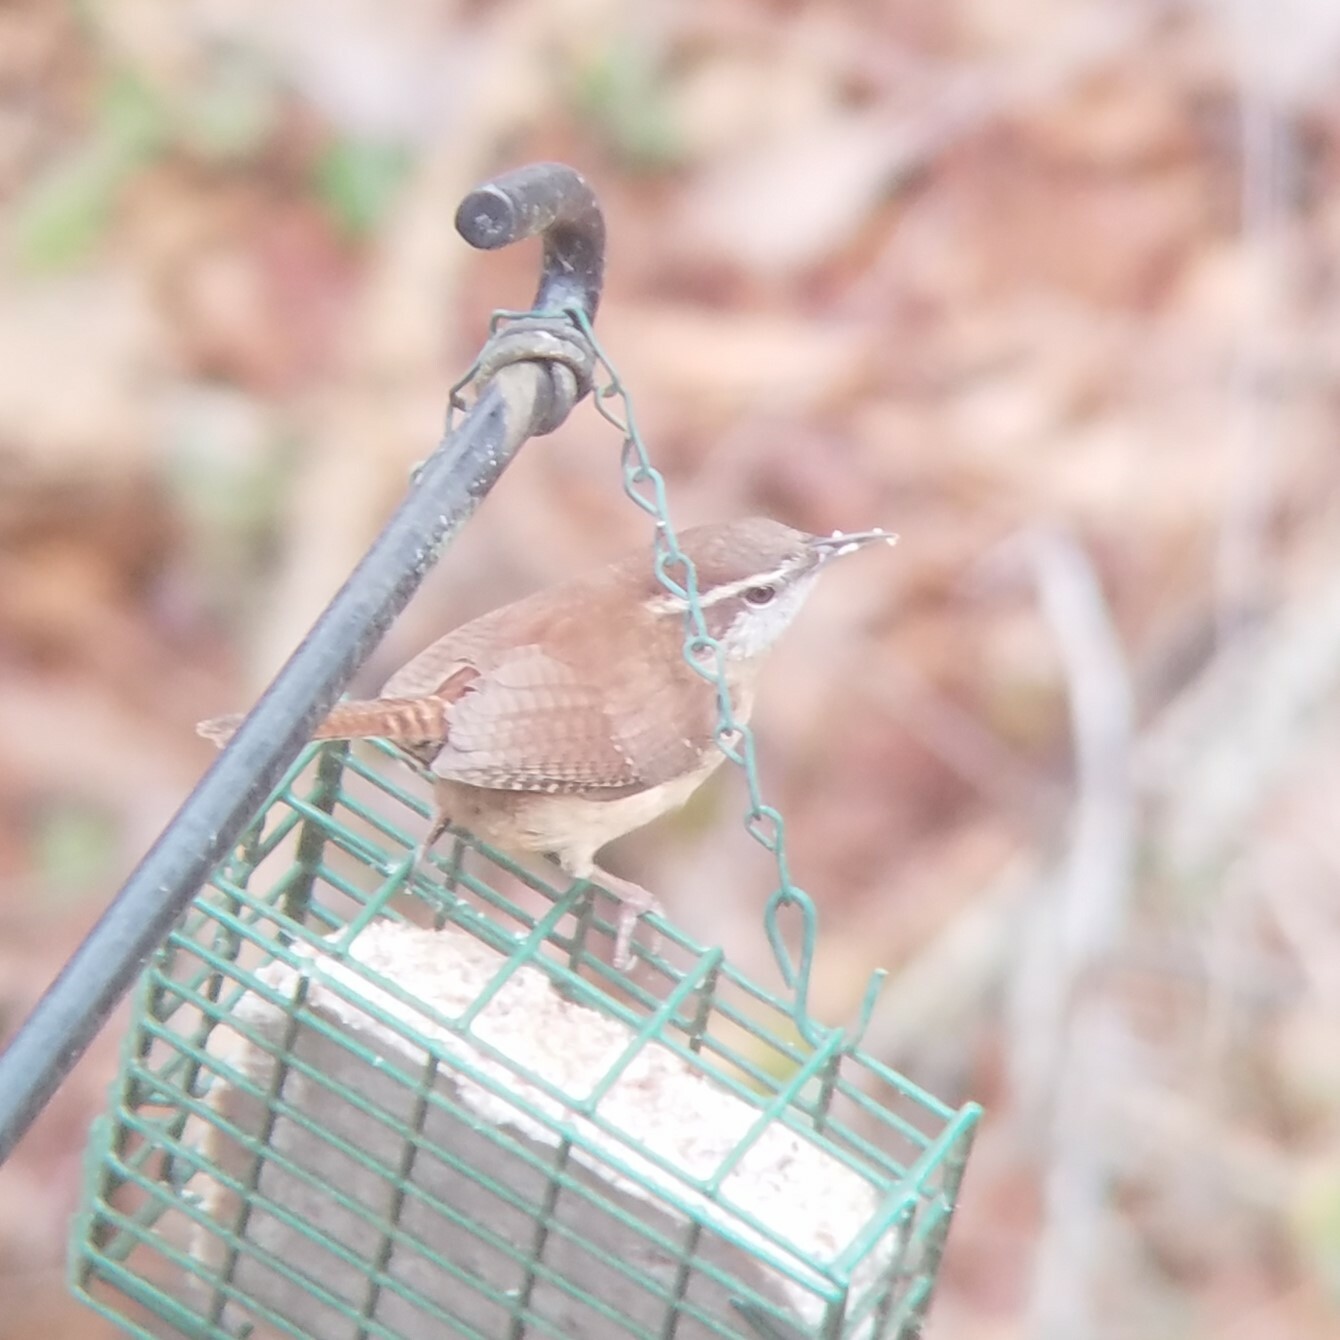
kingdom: Animalia
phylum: Chordata
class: Aves
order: Passeriformes
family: Troglodytidae
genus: Thryothorus
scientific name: Thryothorus ludovicianus
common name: Carolina wren
